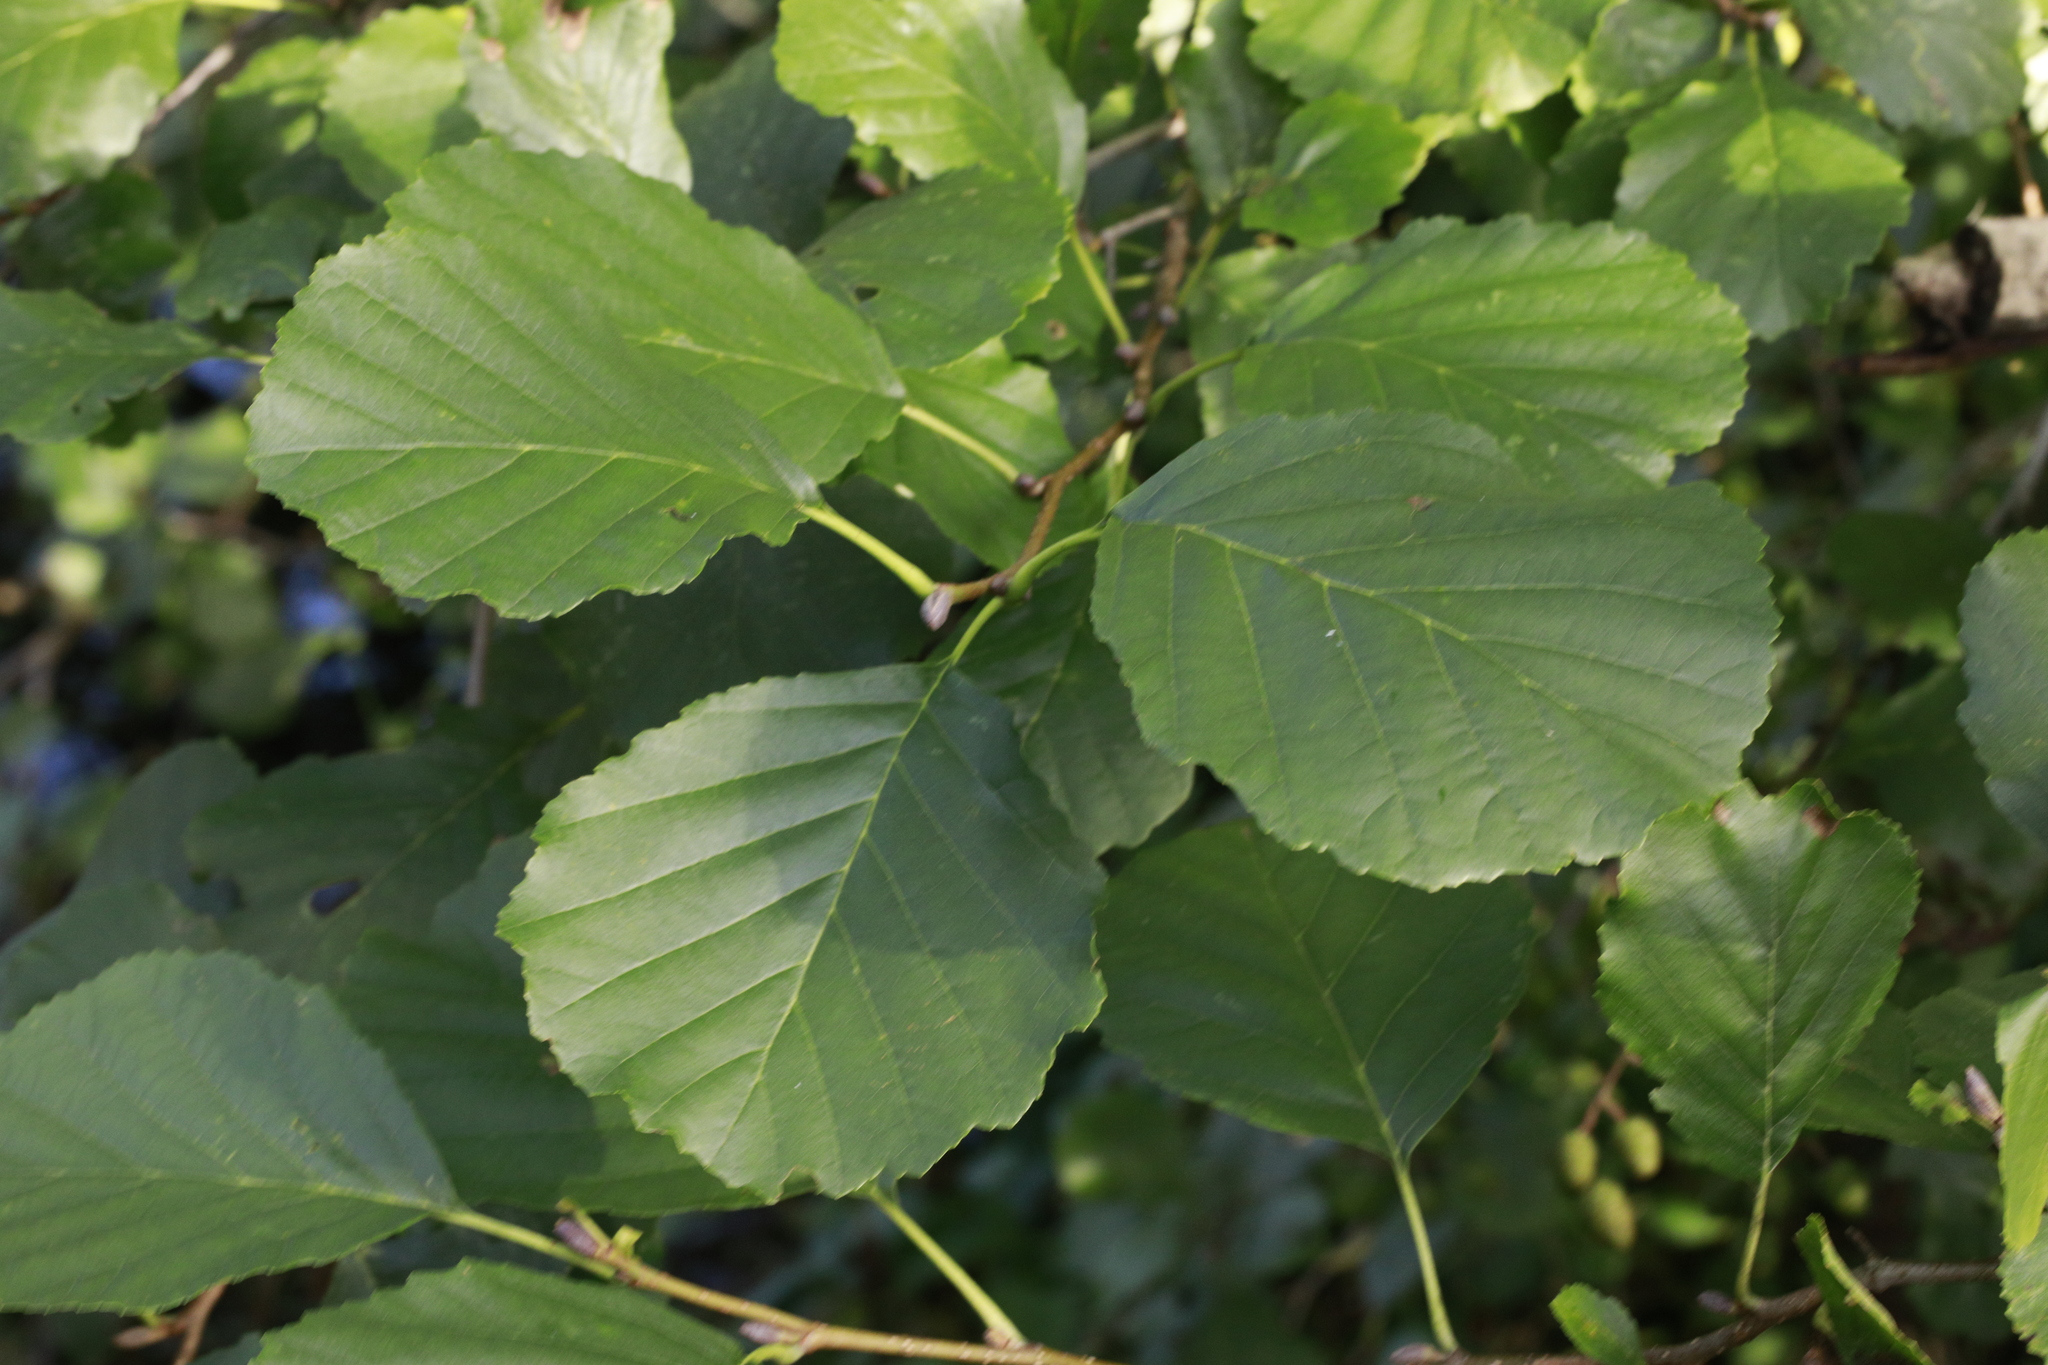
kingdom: Plantae
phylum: Tracheophyta
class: Magnoliopsida
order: Fagales
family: Betulaceae
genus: Alnus
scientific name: Alnus glutinosa
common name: Black alder
